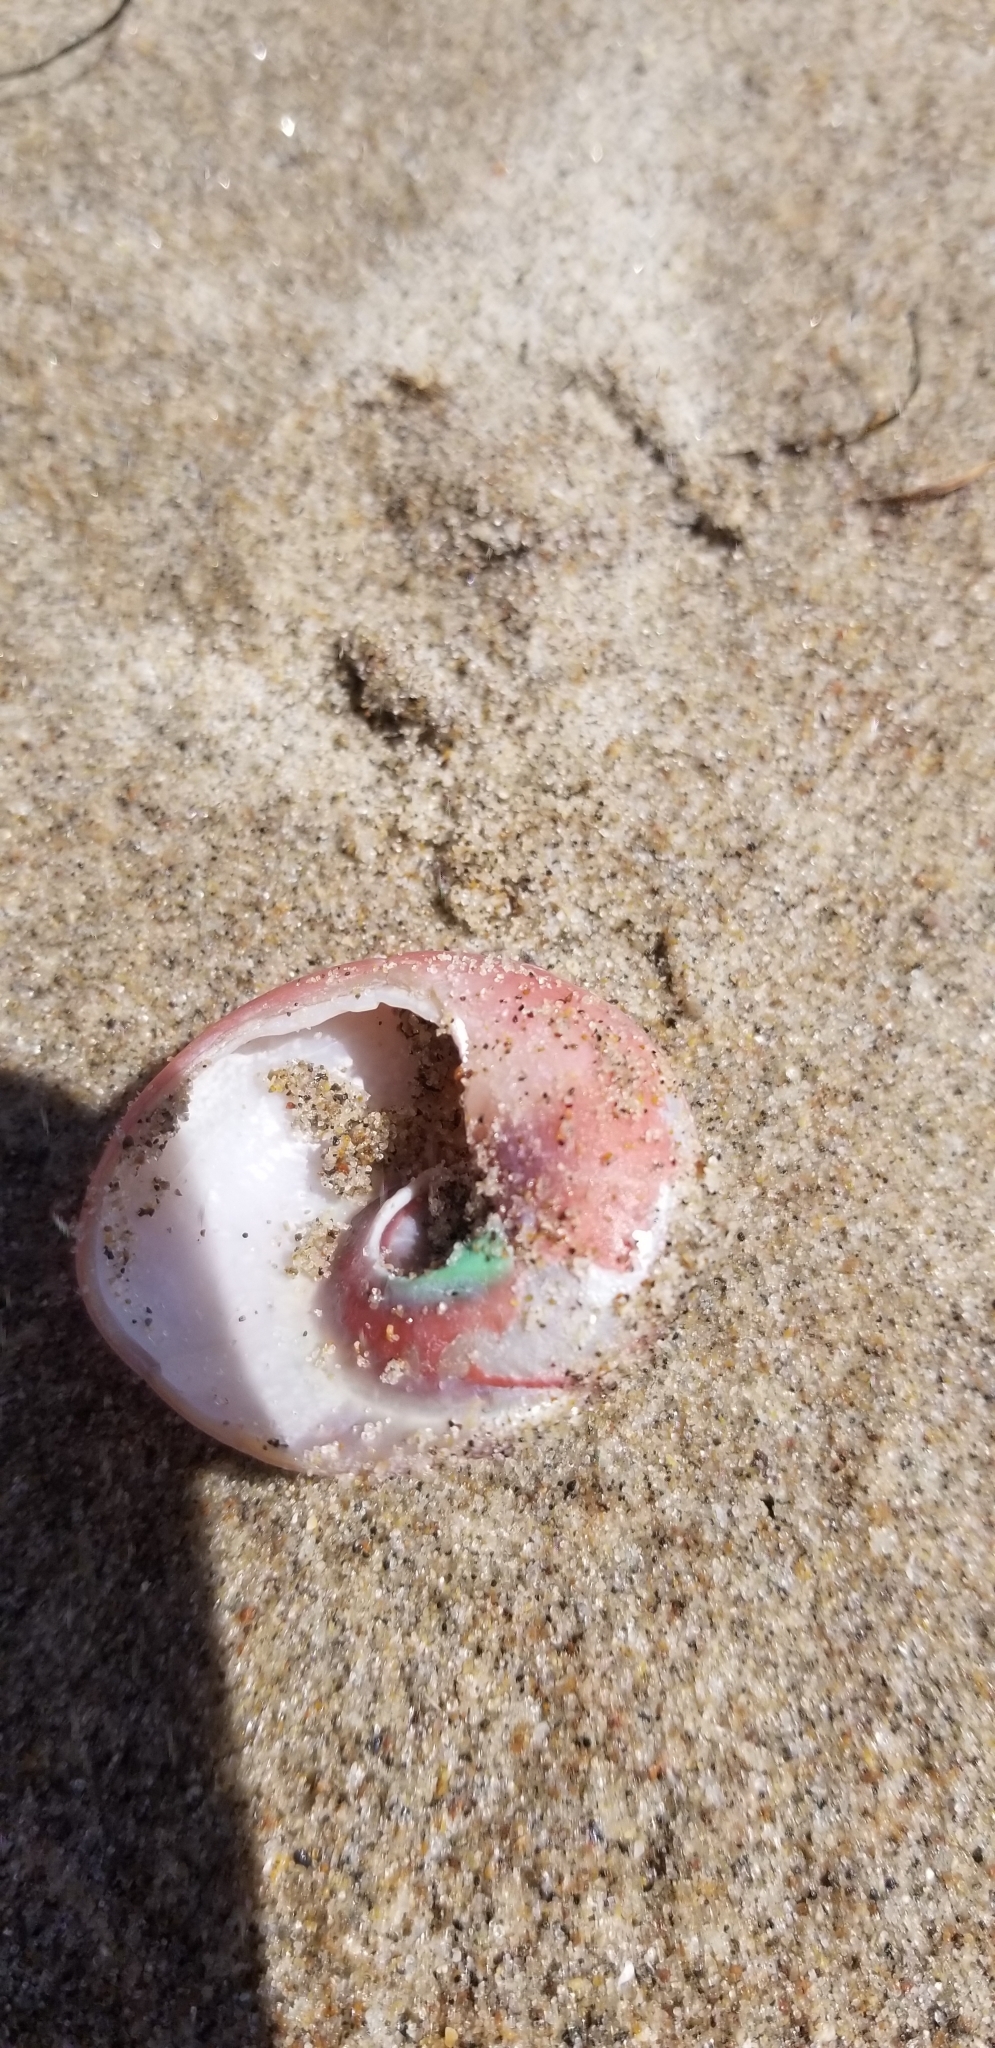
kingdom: Animalia
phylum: Mollusca
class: Gastropoda
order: Trochida
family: Tegulidae
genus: Norrisia
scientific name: Norrisia norrisii
